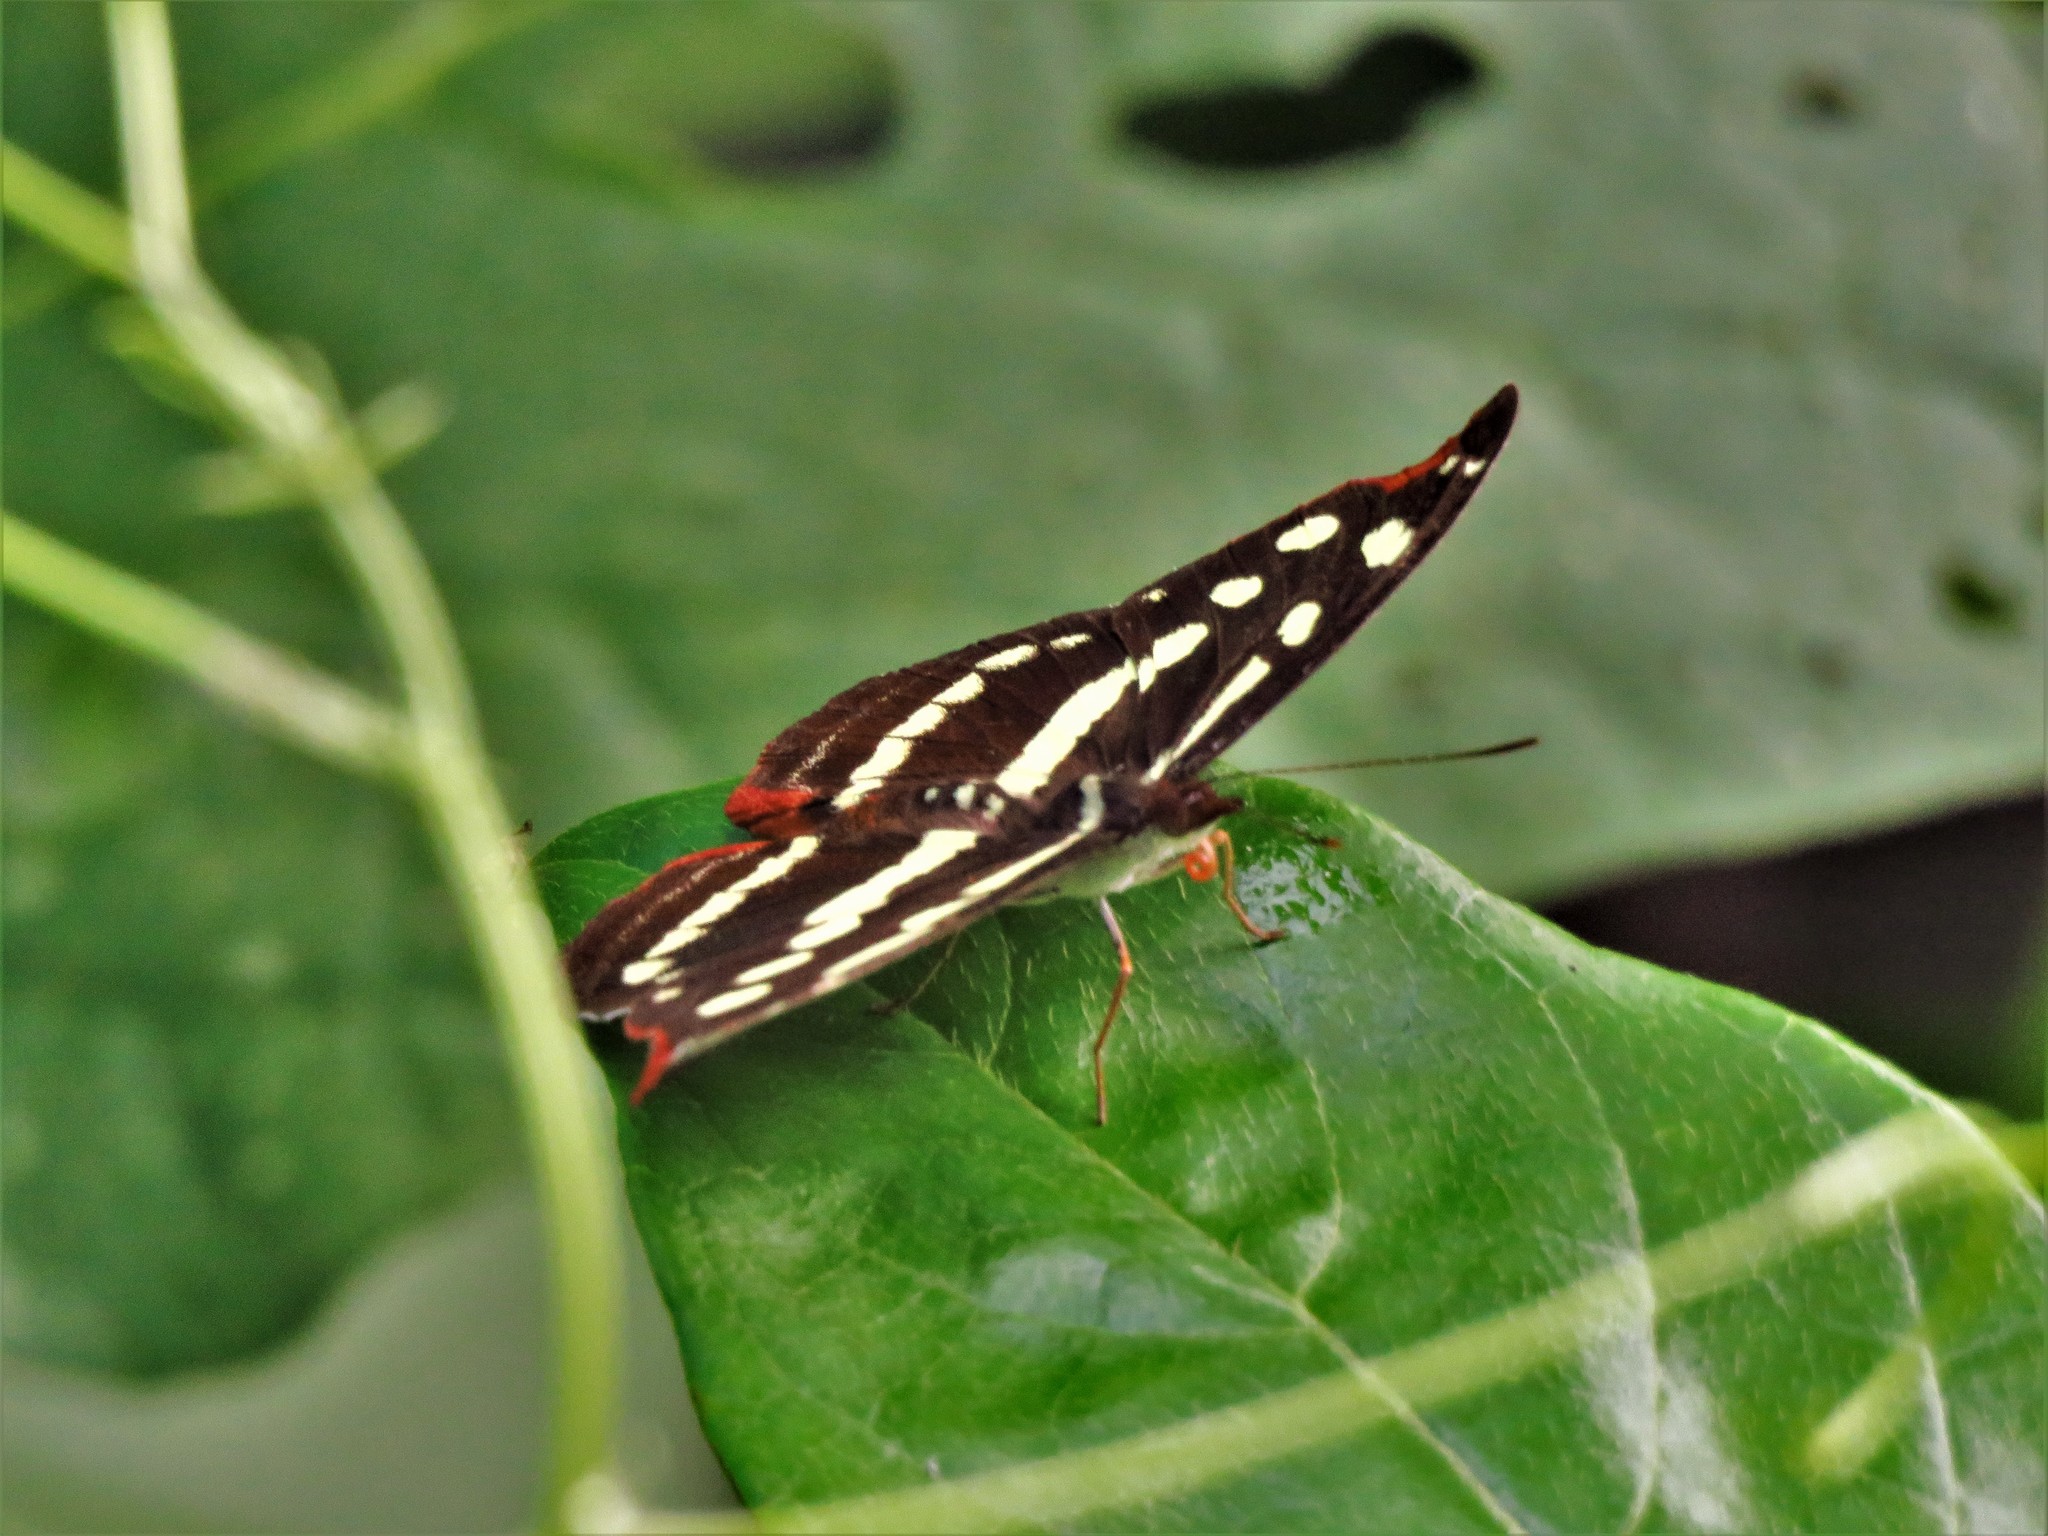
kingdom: Animalia
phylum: Arthropoda
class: Insecta
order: Lepidoptera
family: Nymphalidae
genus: Catonephele
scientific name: Catonephele mexicana
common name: Guatemalan catone
